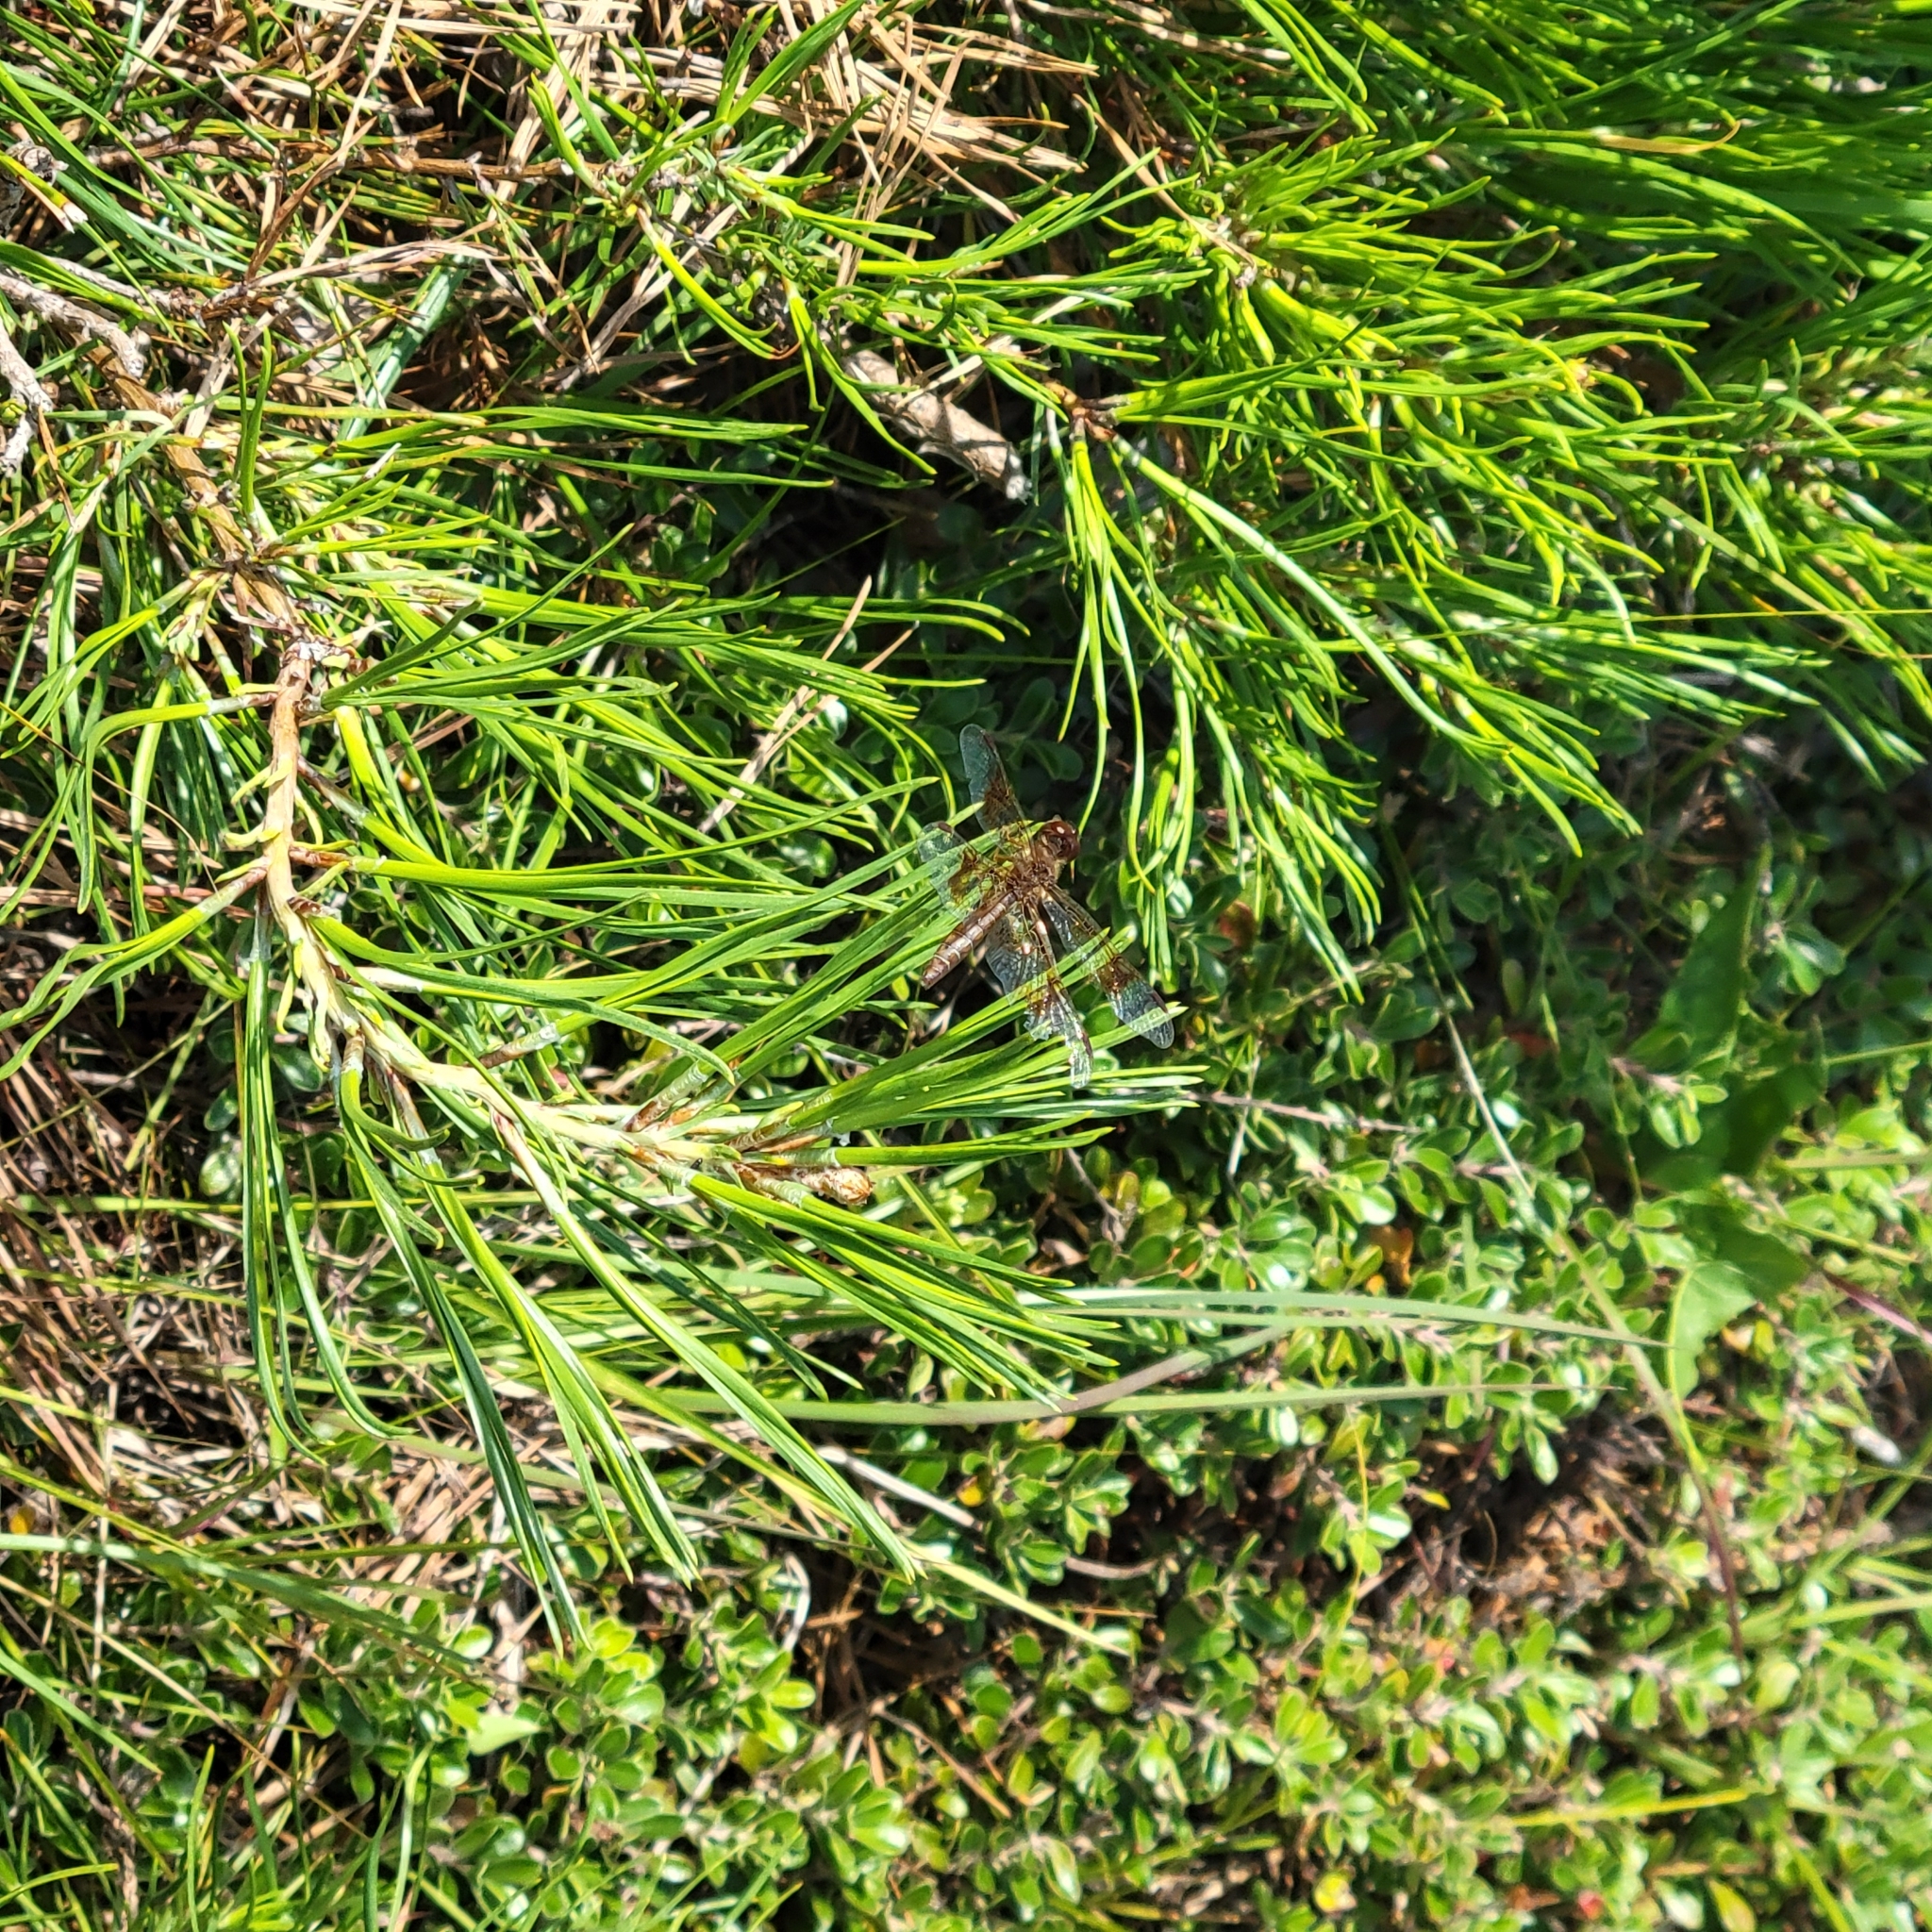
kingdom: Animalia
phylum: Arthropoda
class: Insecta
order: Odonata
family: Libellulidae
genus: Perithemis
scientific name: Perithemis tenera
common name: Eastern amberwing
